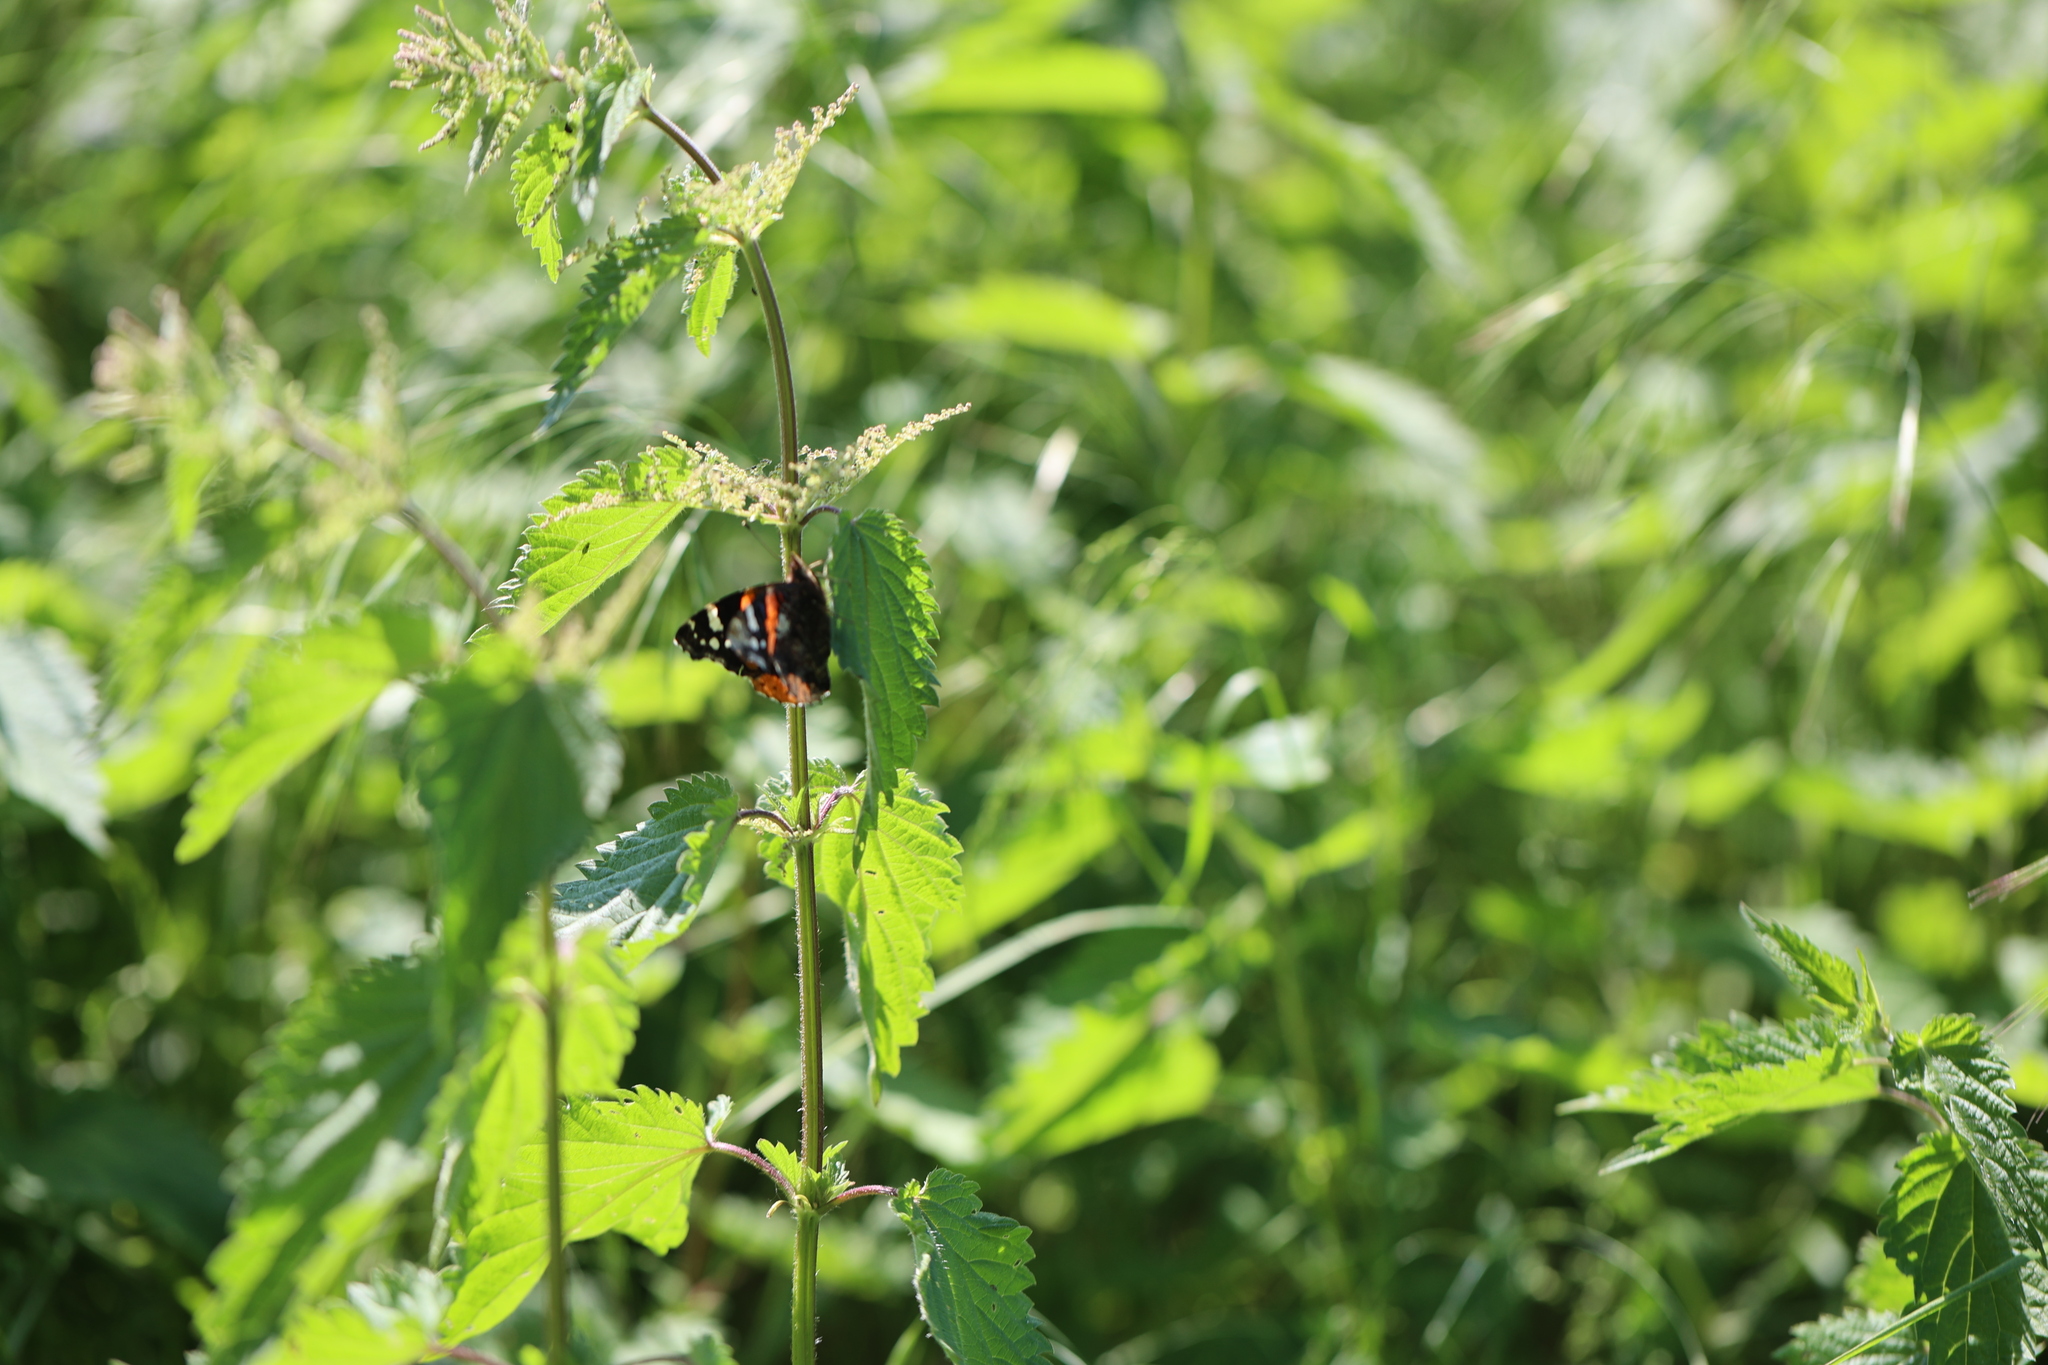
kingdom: Animalia
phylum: Arthropoda
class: Insecta
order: Lepidoptera
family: Nymphalidae
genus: Vanessa
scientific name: Vanessa atalanta
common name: Red admiral
